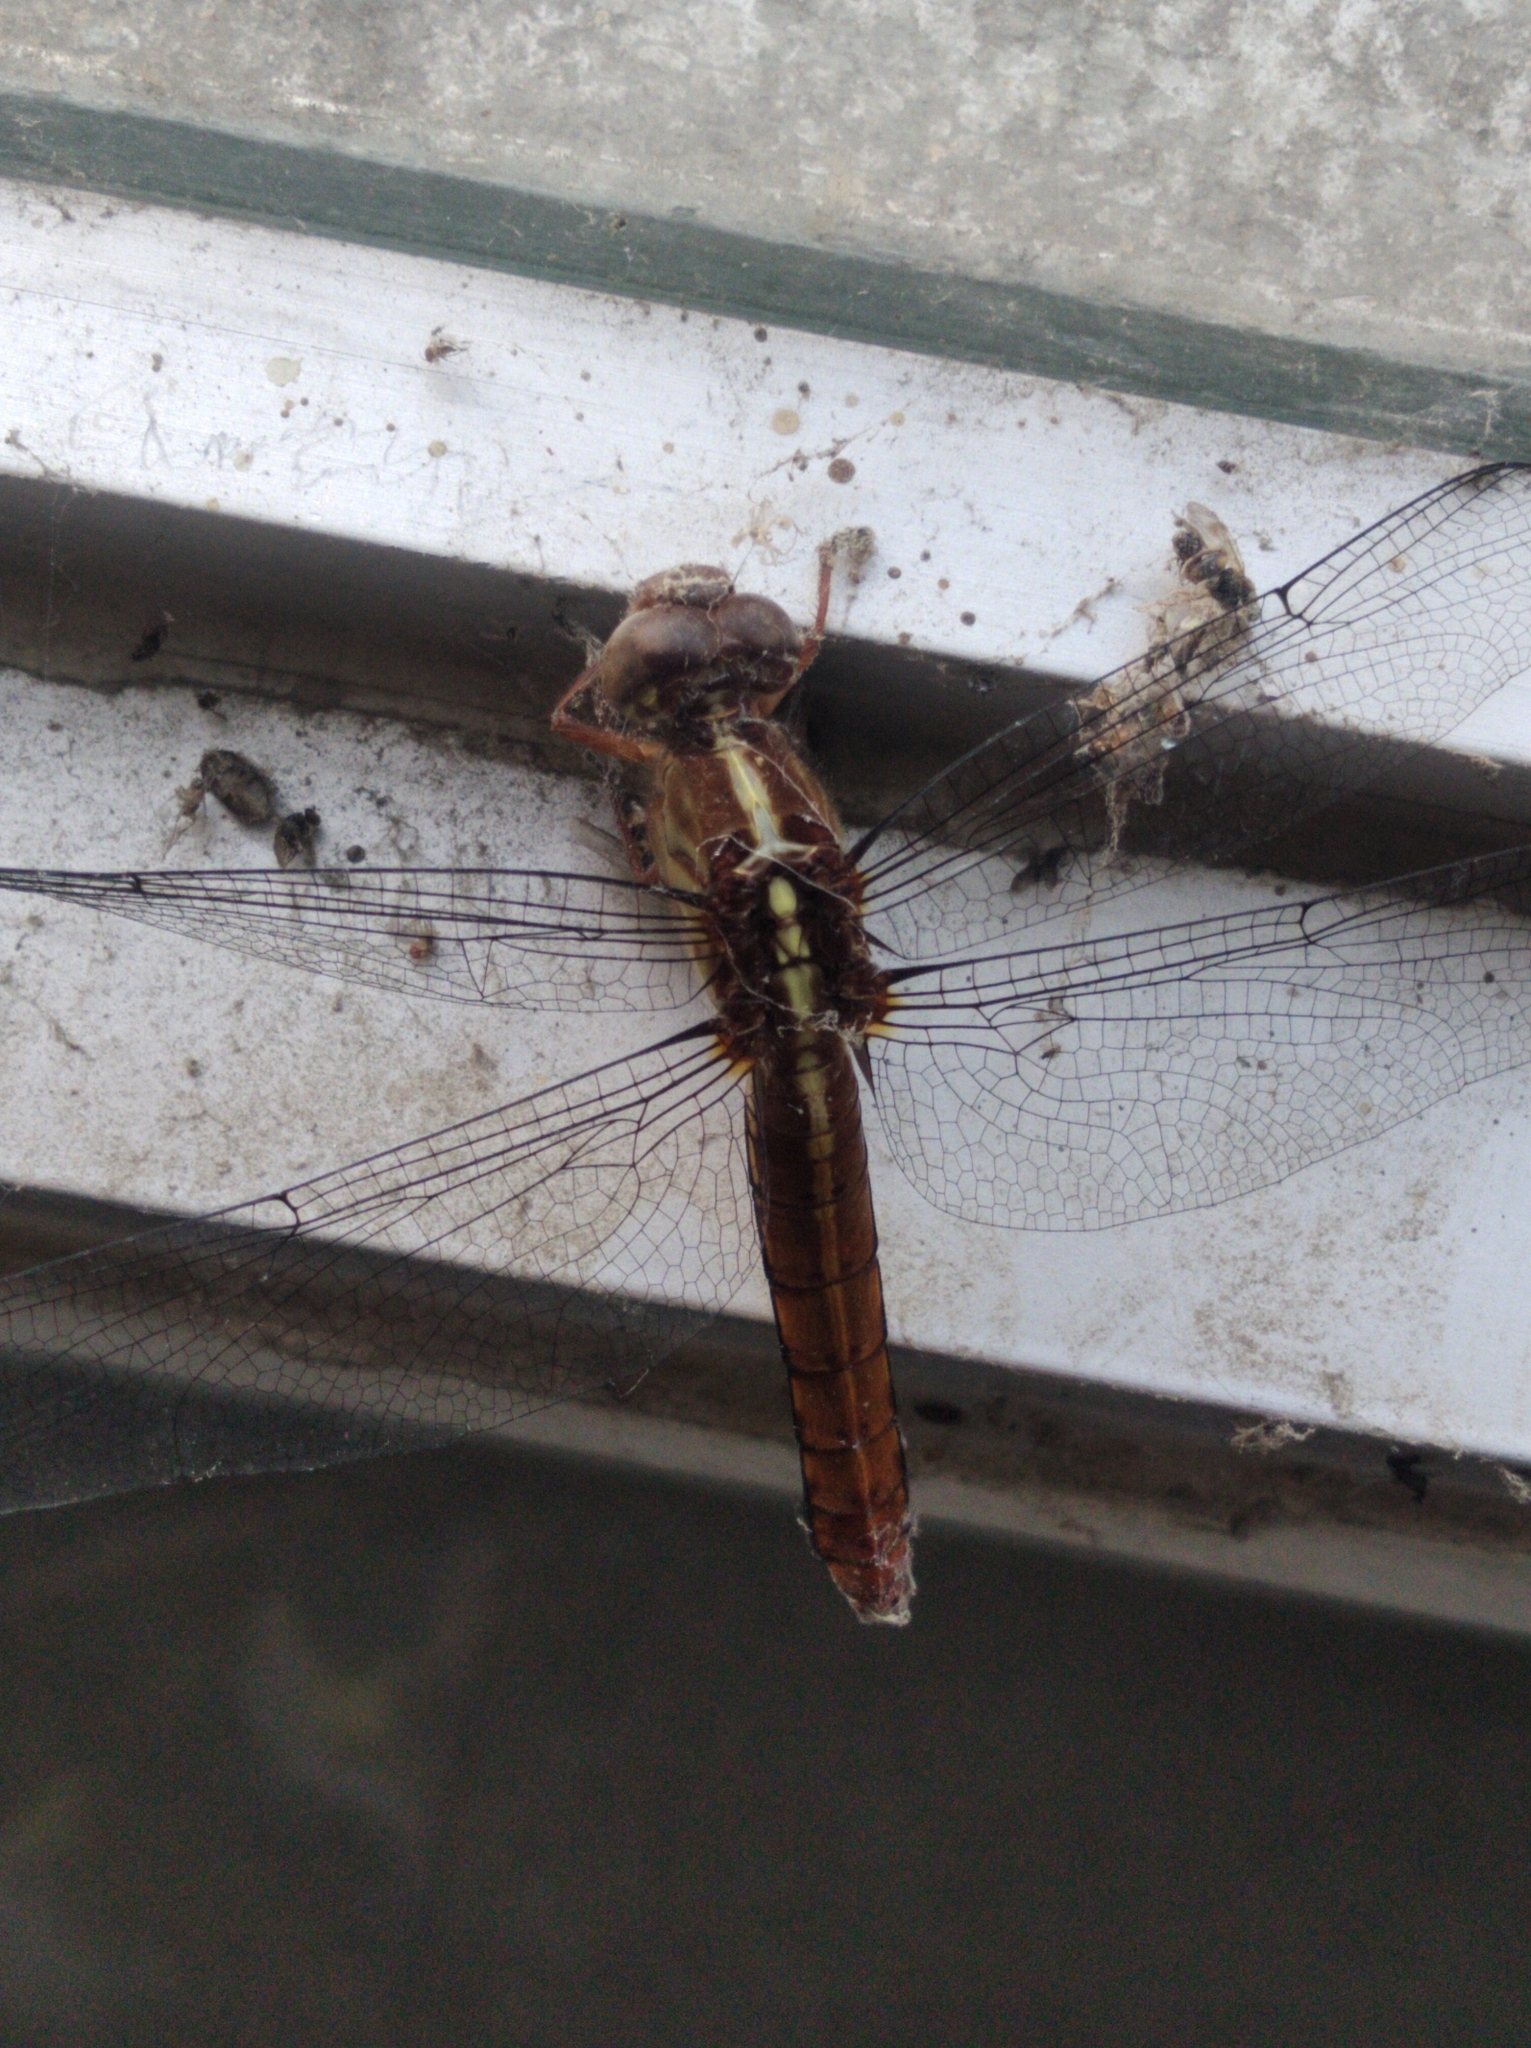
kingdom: Animalia
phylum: Arthropoda
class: Insecta
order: Odonata
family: Libellulidae
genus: Orthemis
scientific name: Orthemis discolor
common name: Carmine skimmer
